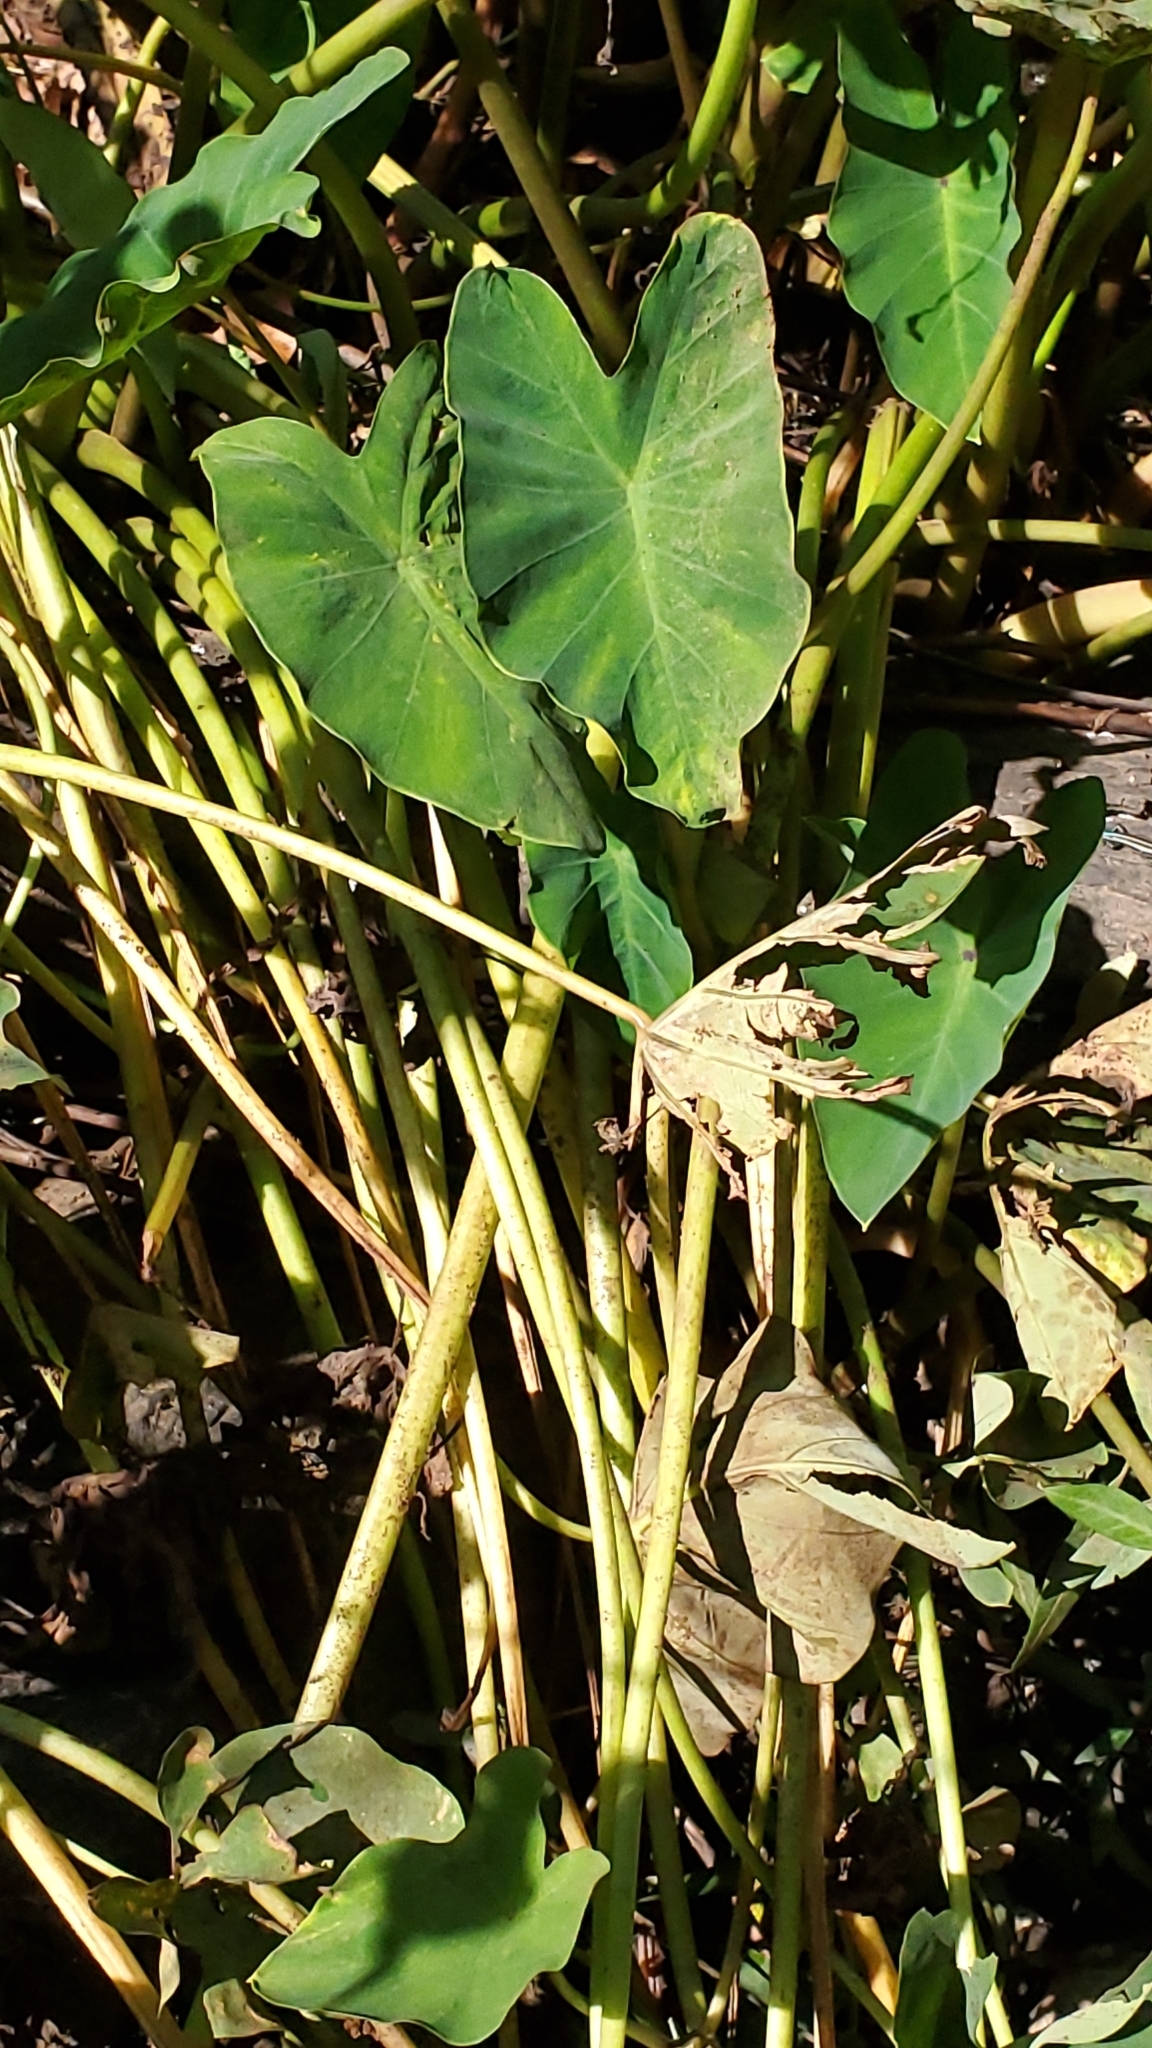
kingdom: Plantae
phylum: Tracheophyta
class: Liliopsida
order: Alismatales
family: Araceae
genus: Colocasia
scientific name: Colocasia esculenta
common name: Taro
